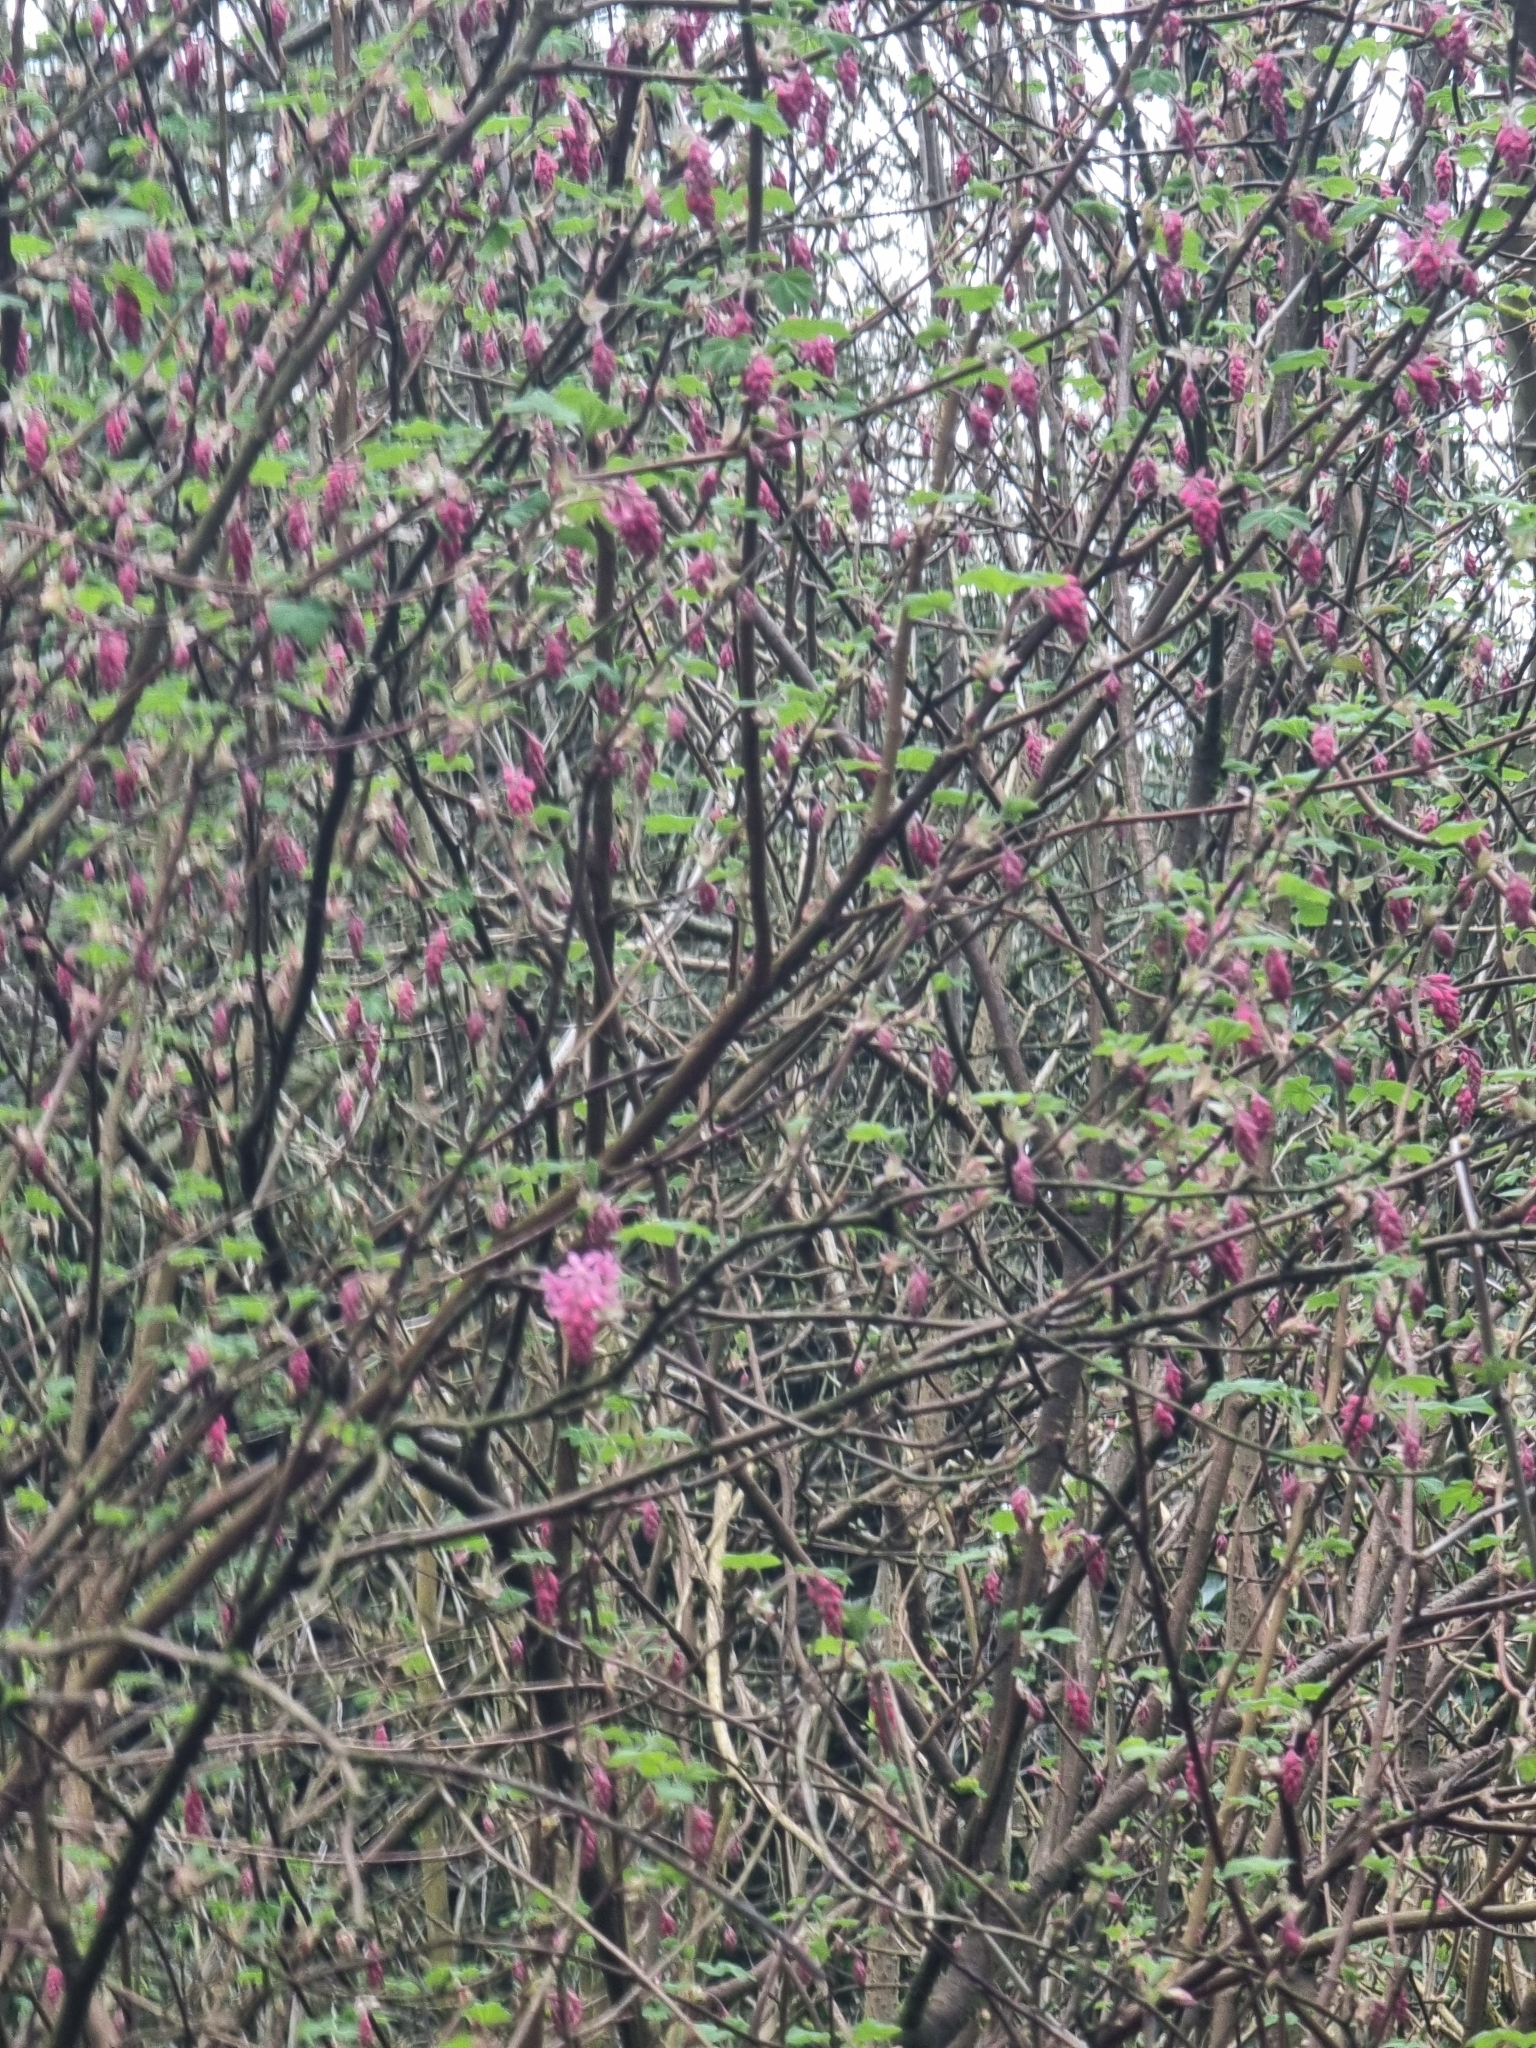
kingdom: Plantae
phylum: Tracheophyta
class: Magnoliopsida
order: Saxifragales
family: Grossulariaceae
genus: Ribes
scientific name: Ribes sanguineum
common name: Flowering currant
